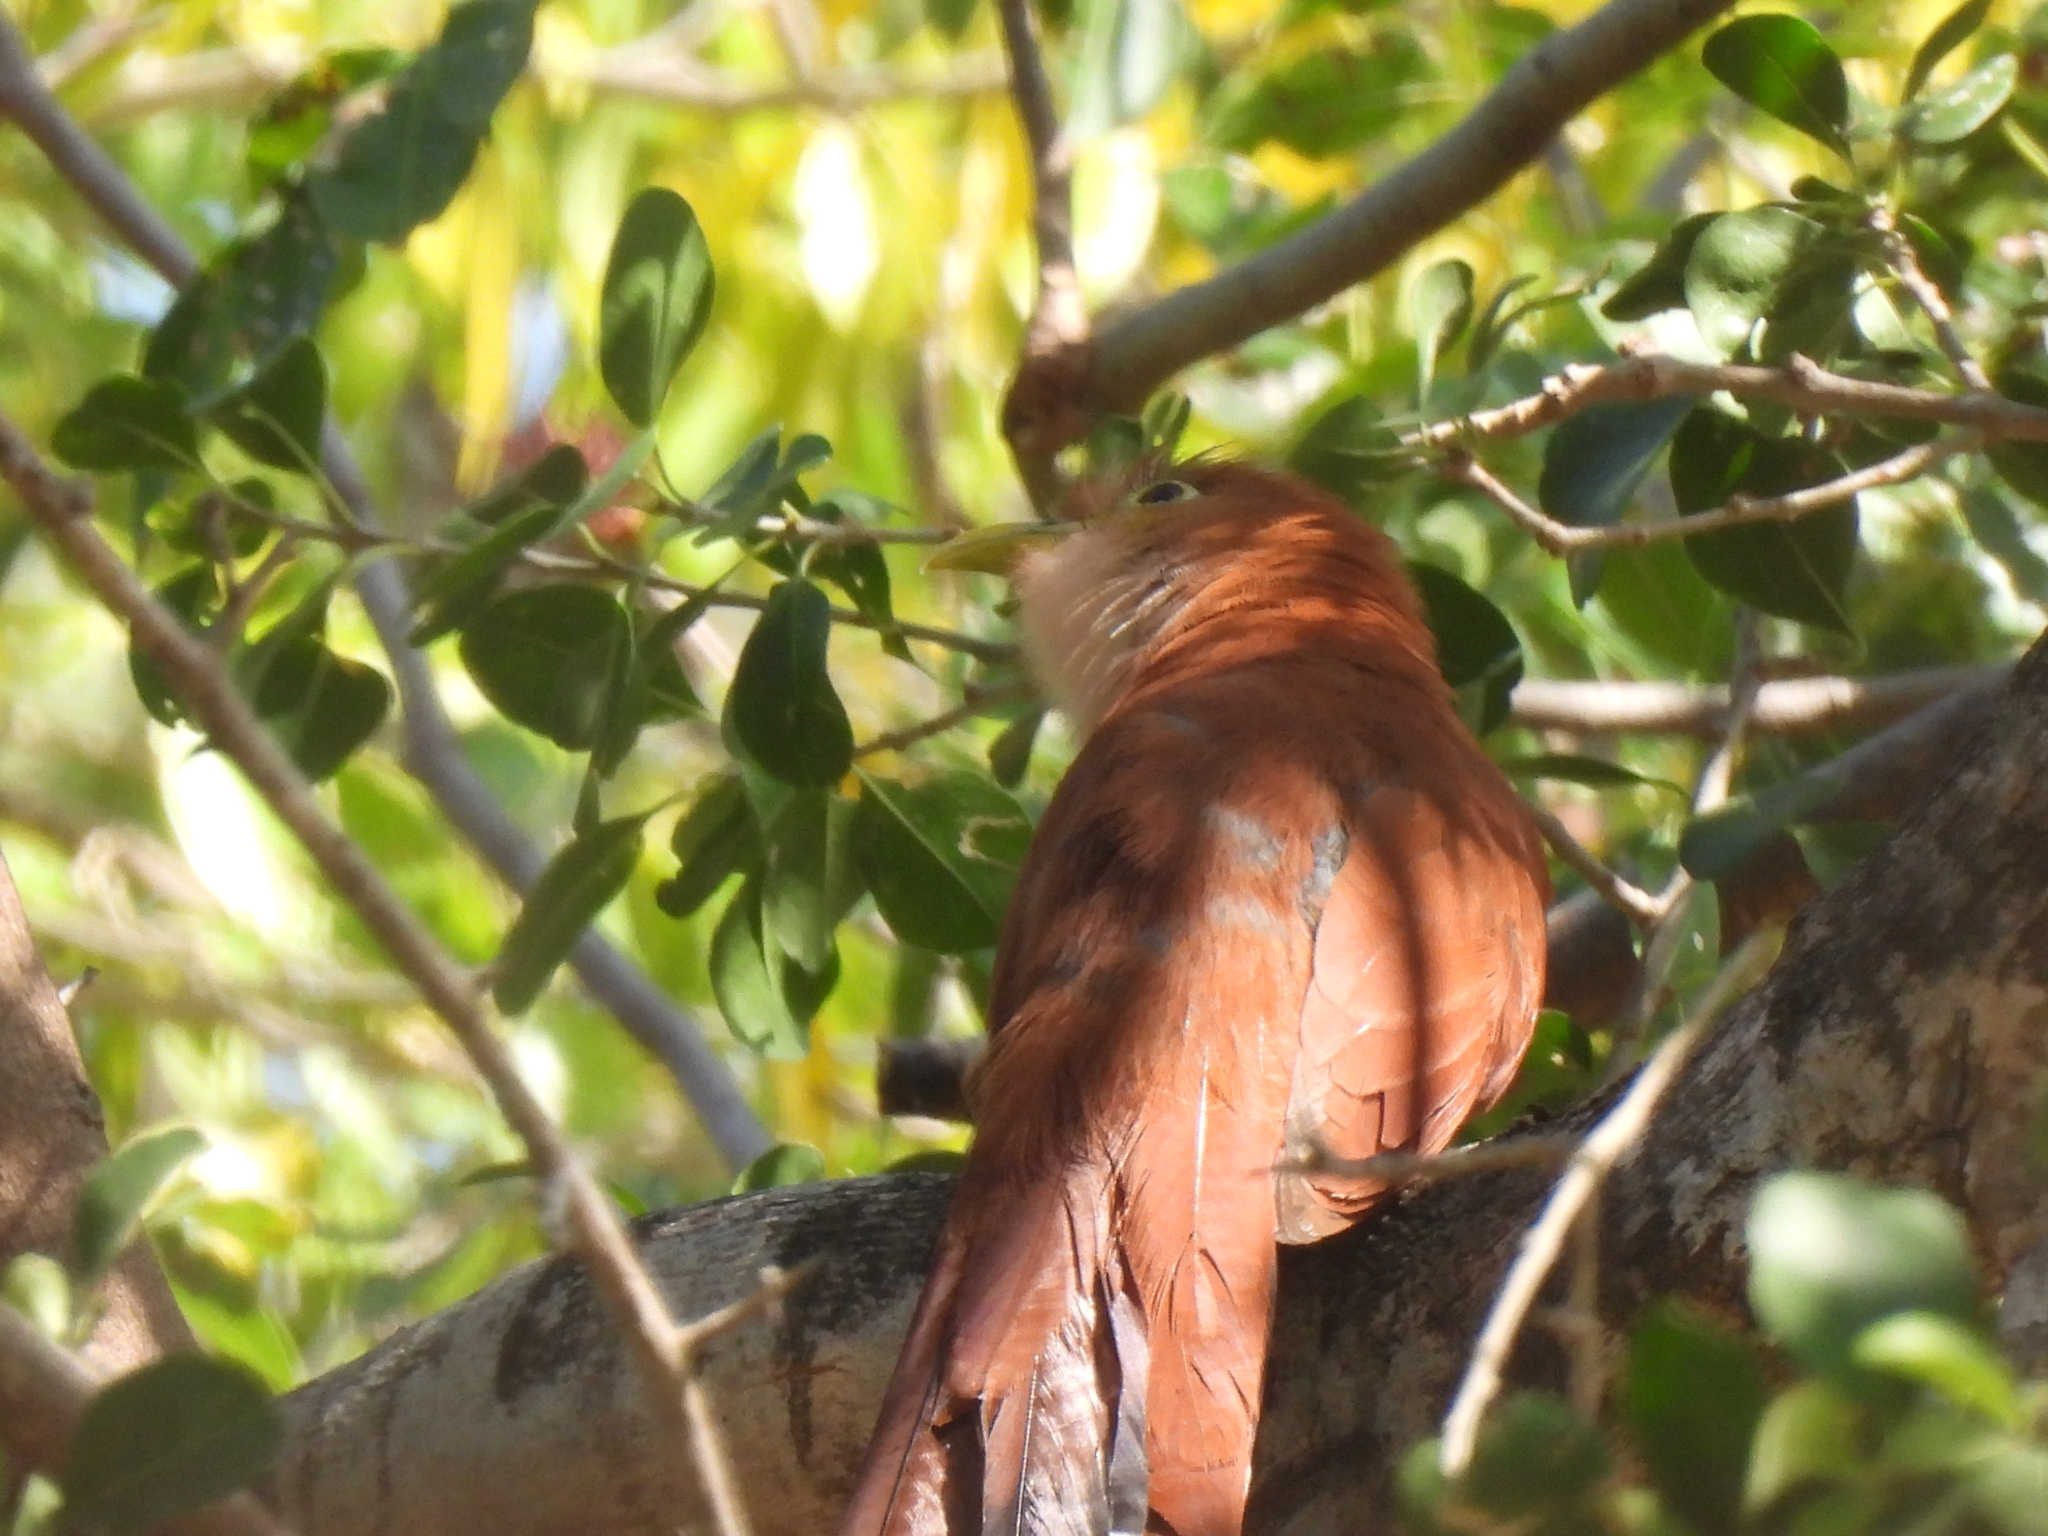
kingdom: Animalia
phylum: Chordata
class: Aves
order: Cuculiformes
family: Cuculidae
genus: Piaya
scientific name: Piaya cayana
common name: Squirrel cuckoo
